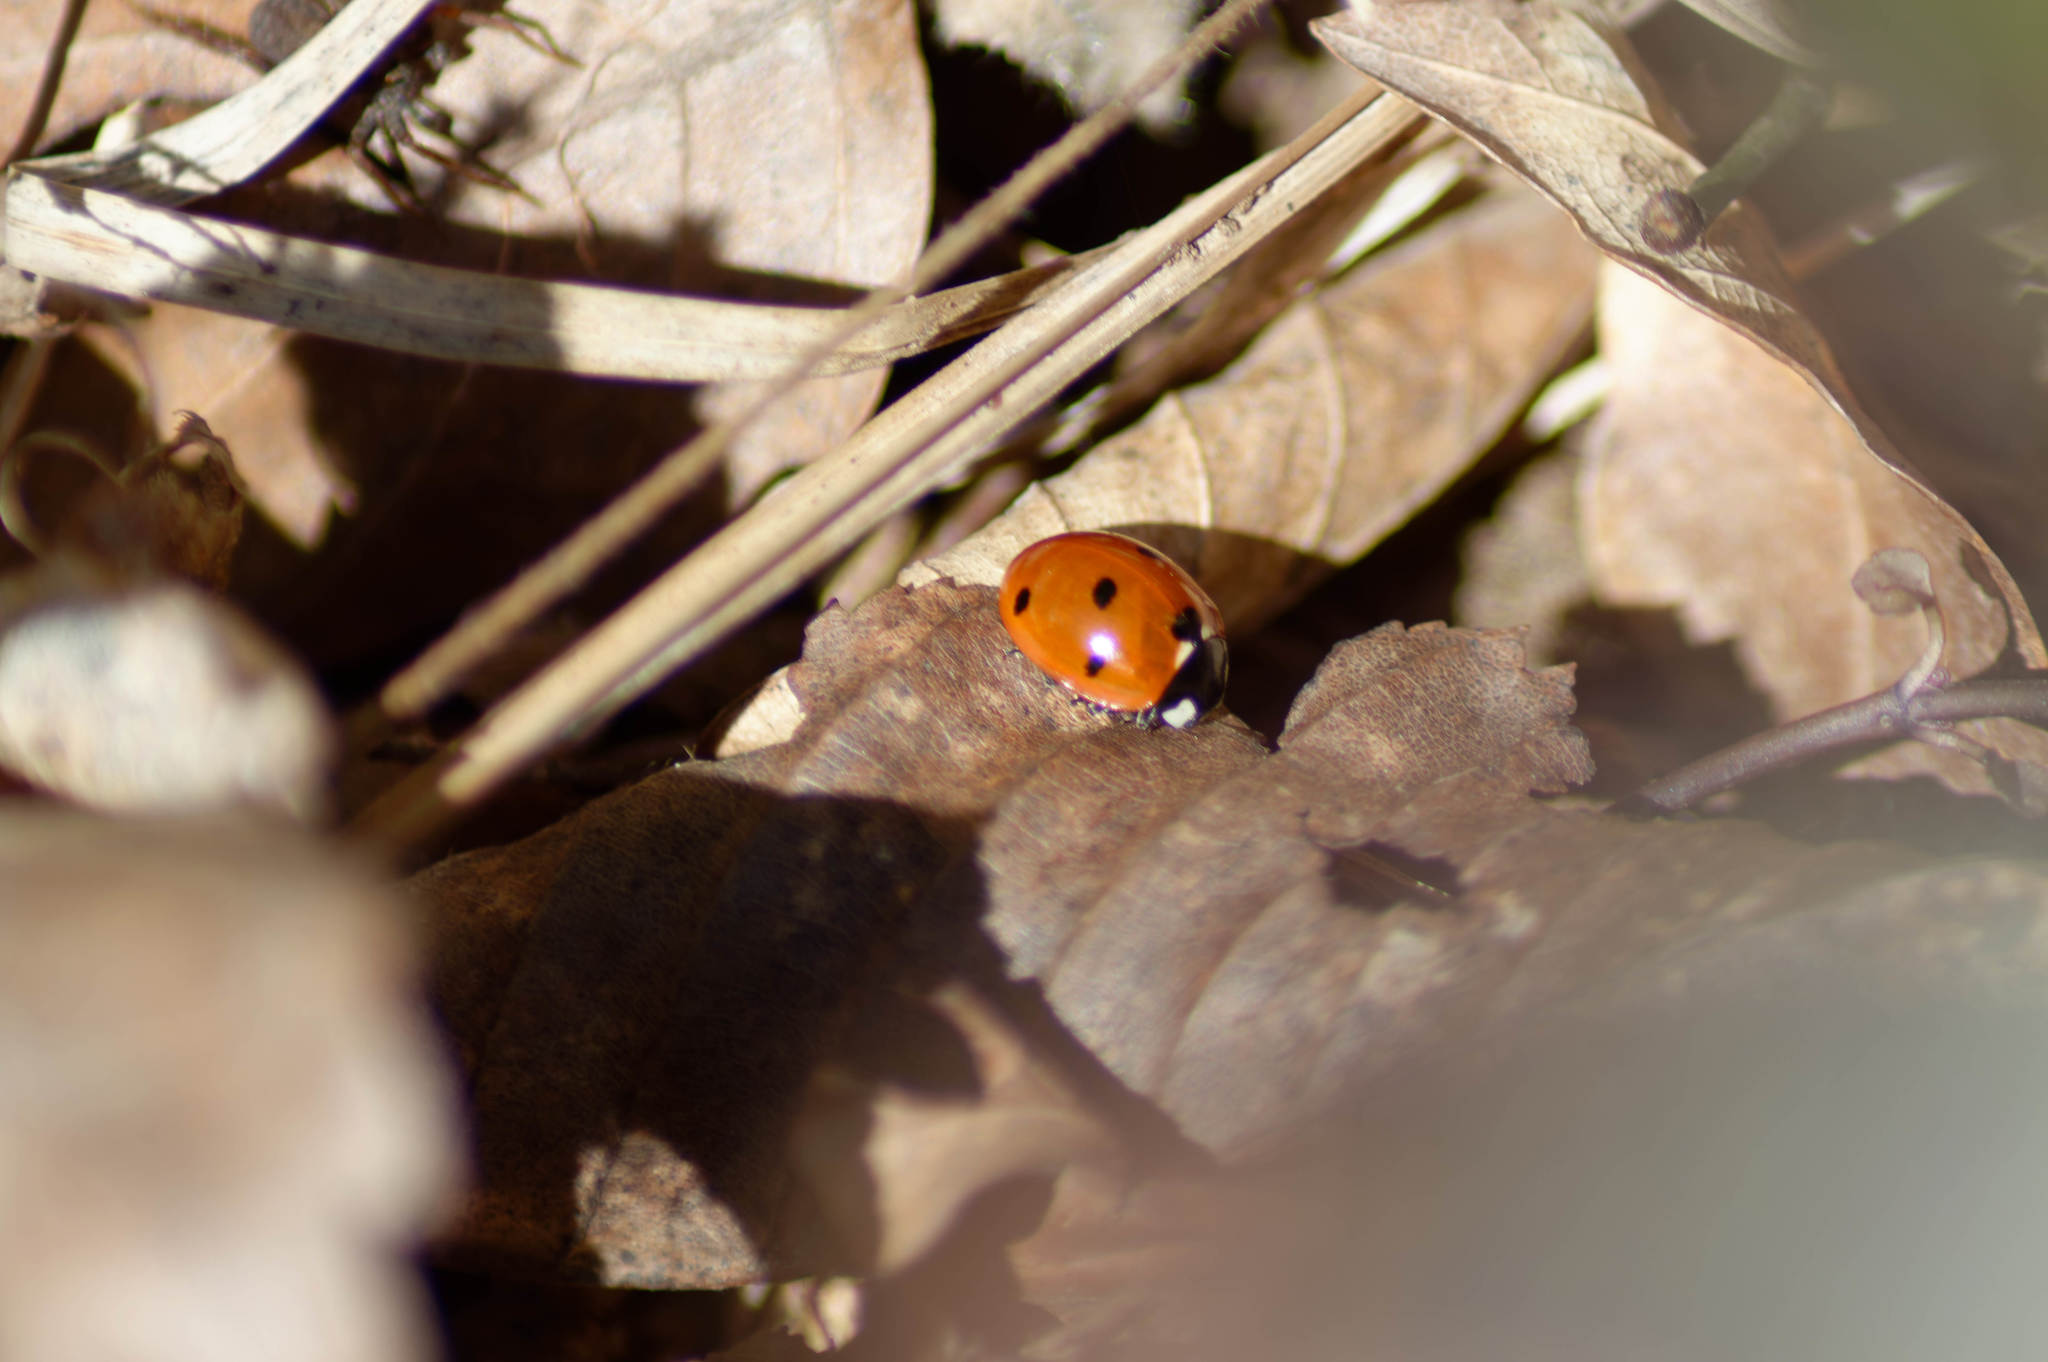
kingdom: Animalia
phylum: Arthropoda
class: Insecta
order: Coleoptera
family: Coccinellidae
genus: Coccinella
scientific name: Coccinella septempunctata
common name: Sevenspotted lady beetle
